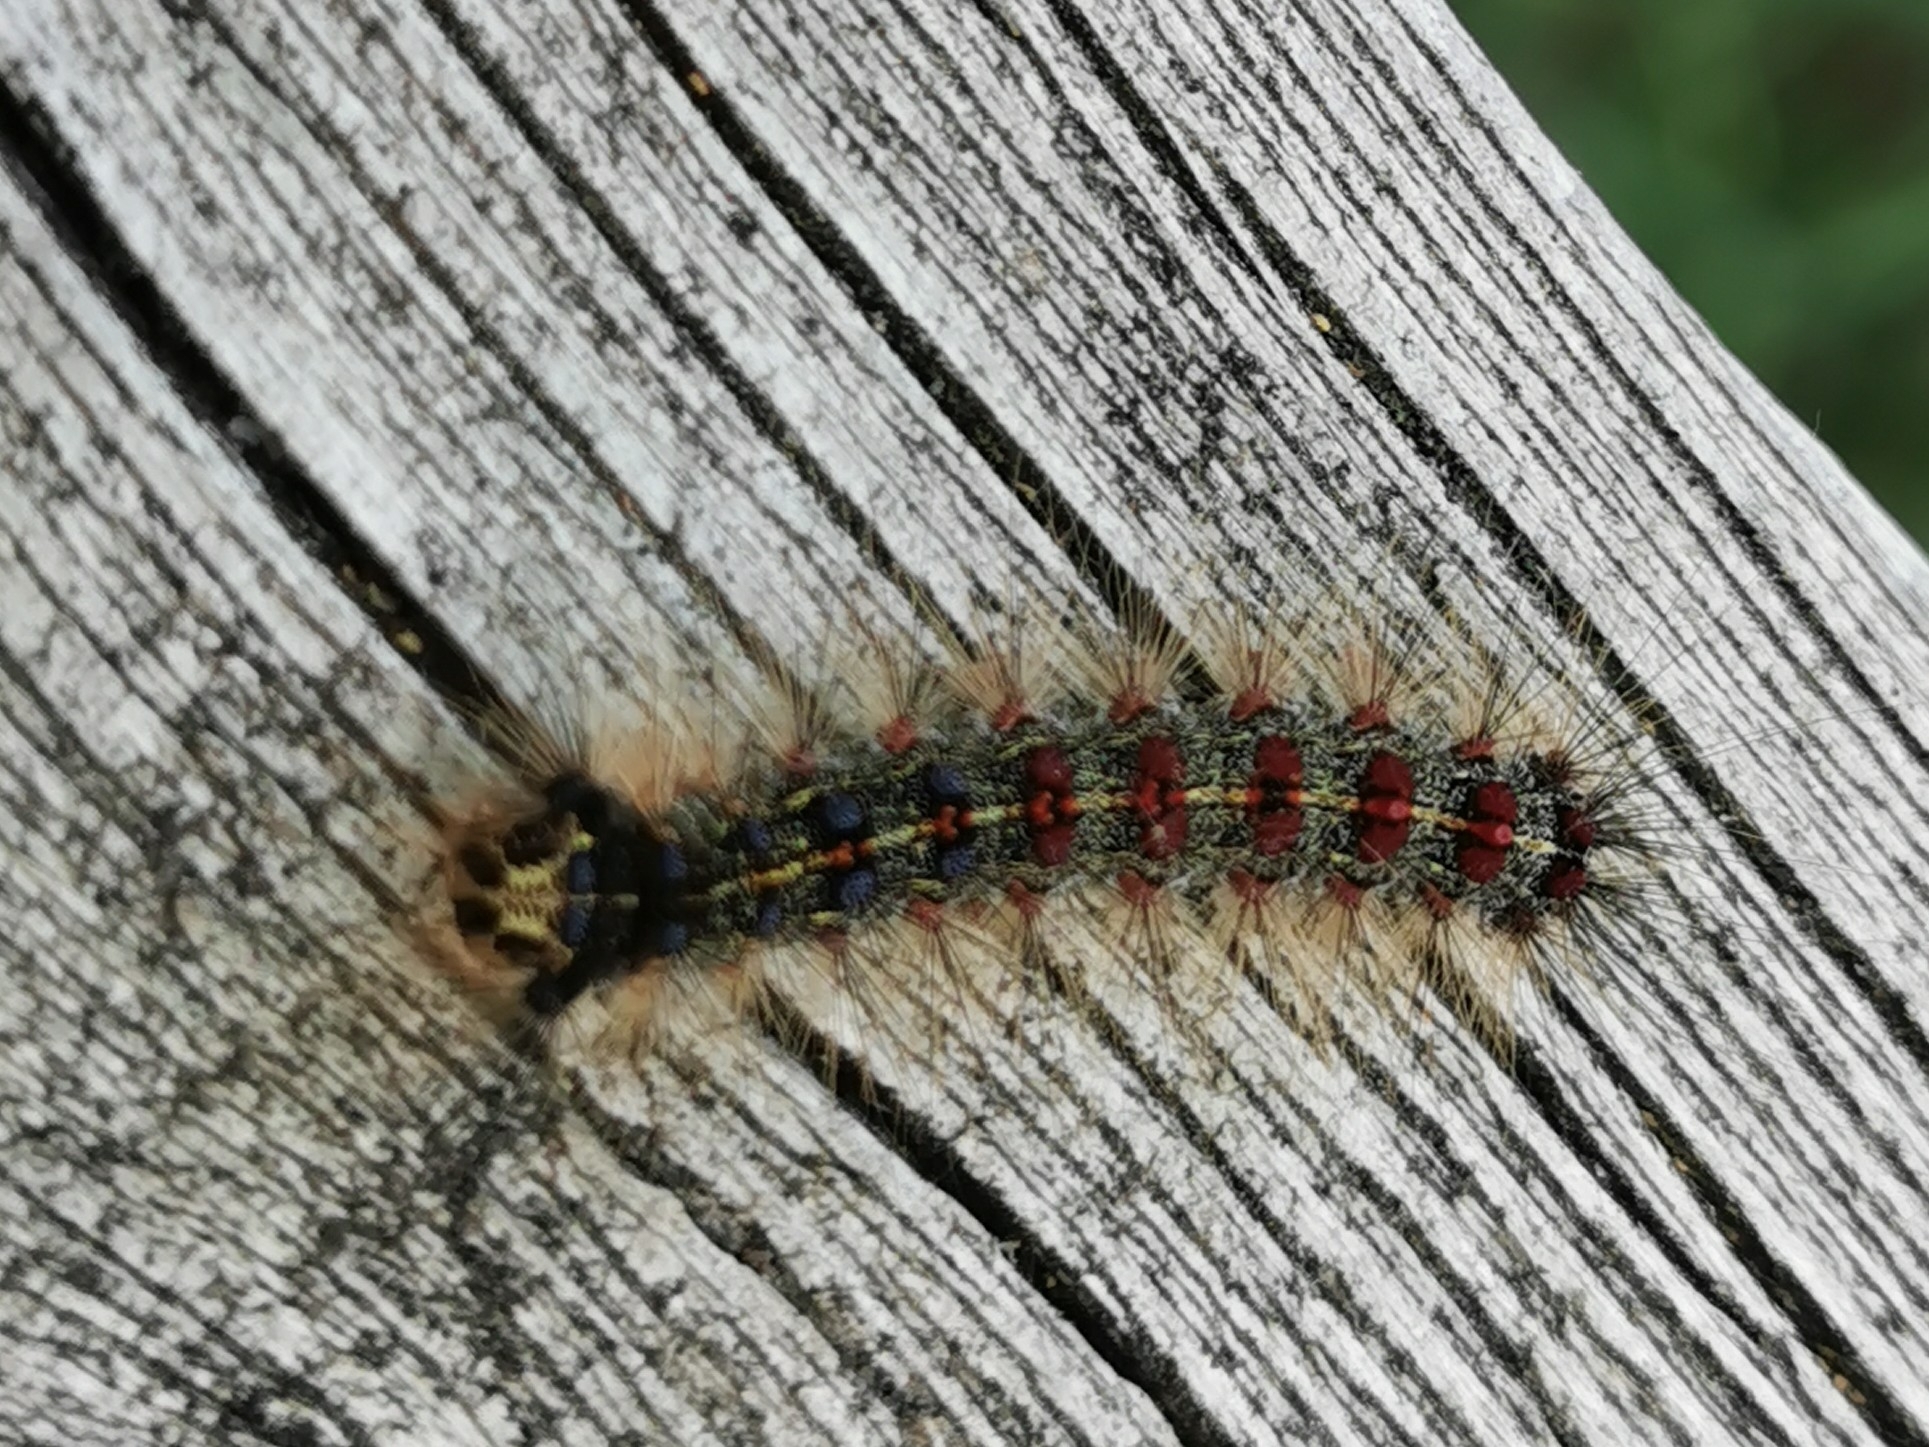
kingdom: Animalia
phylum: Arthropoda
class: Insecta
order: Lepidoptera
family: Erebidae
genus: Lymantria
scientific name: Lymantria dispar
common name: Gypsy moth
